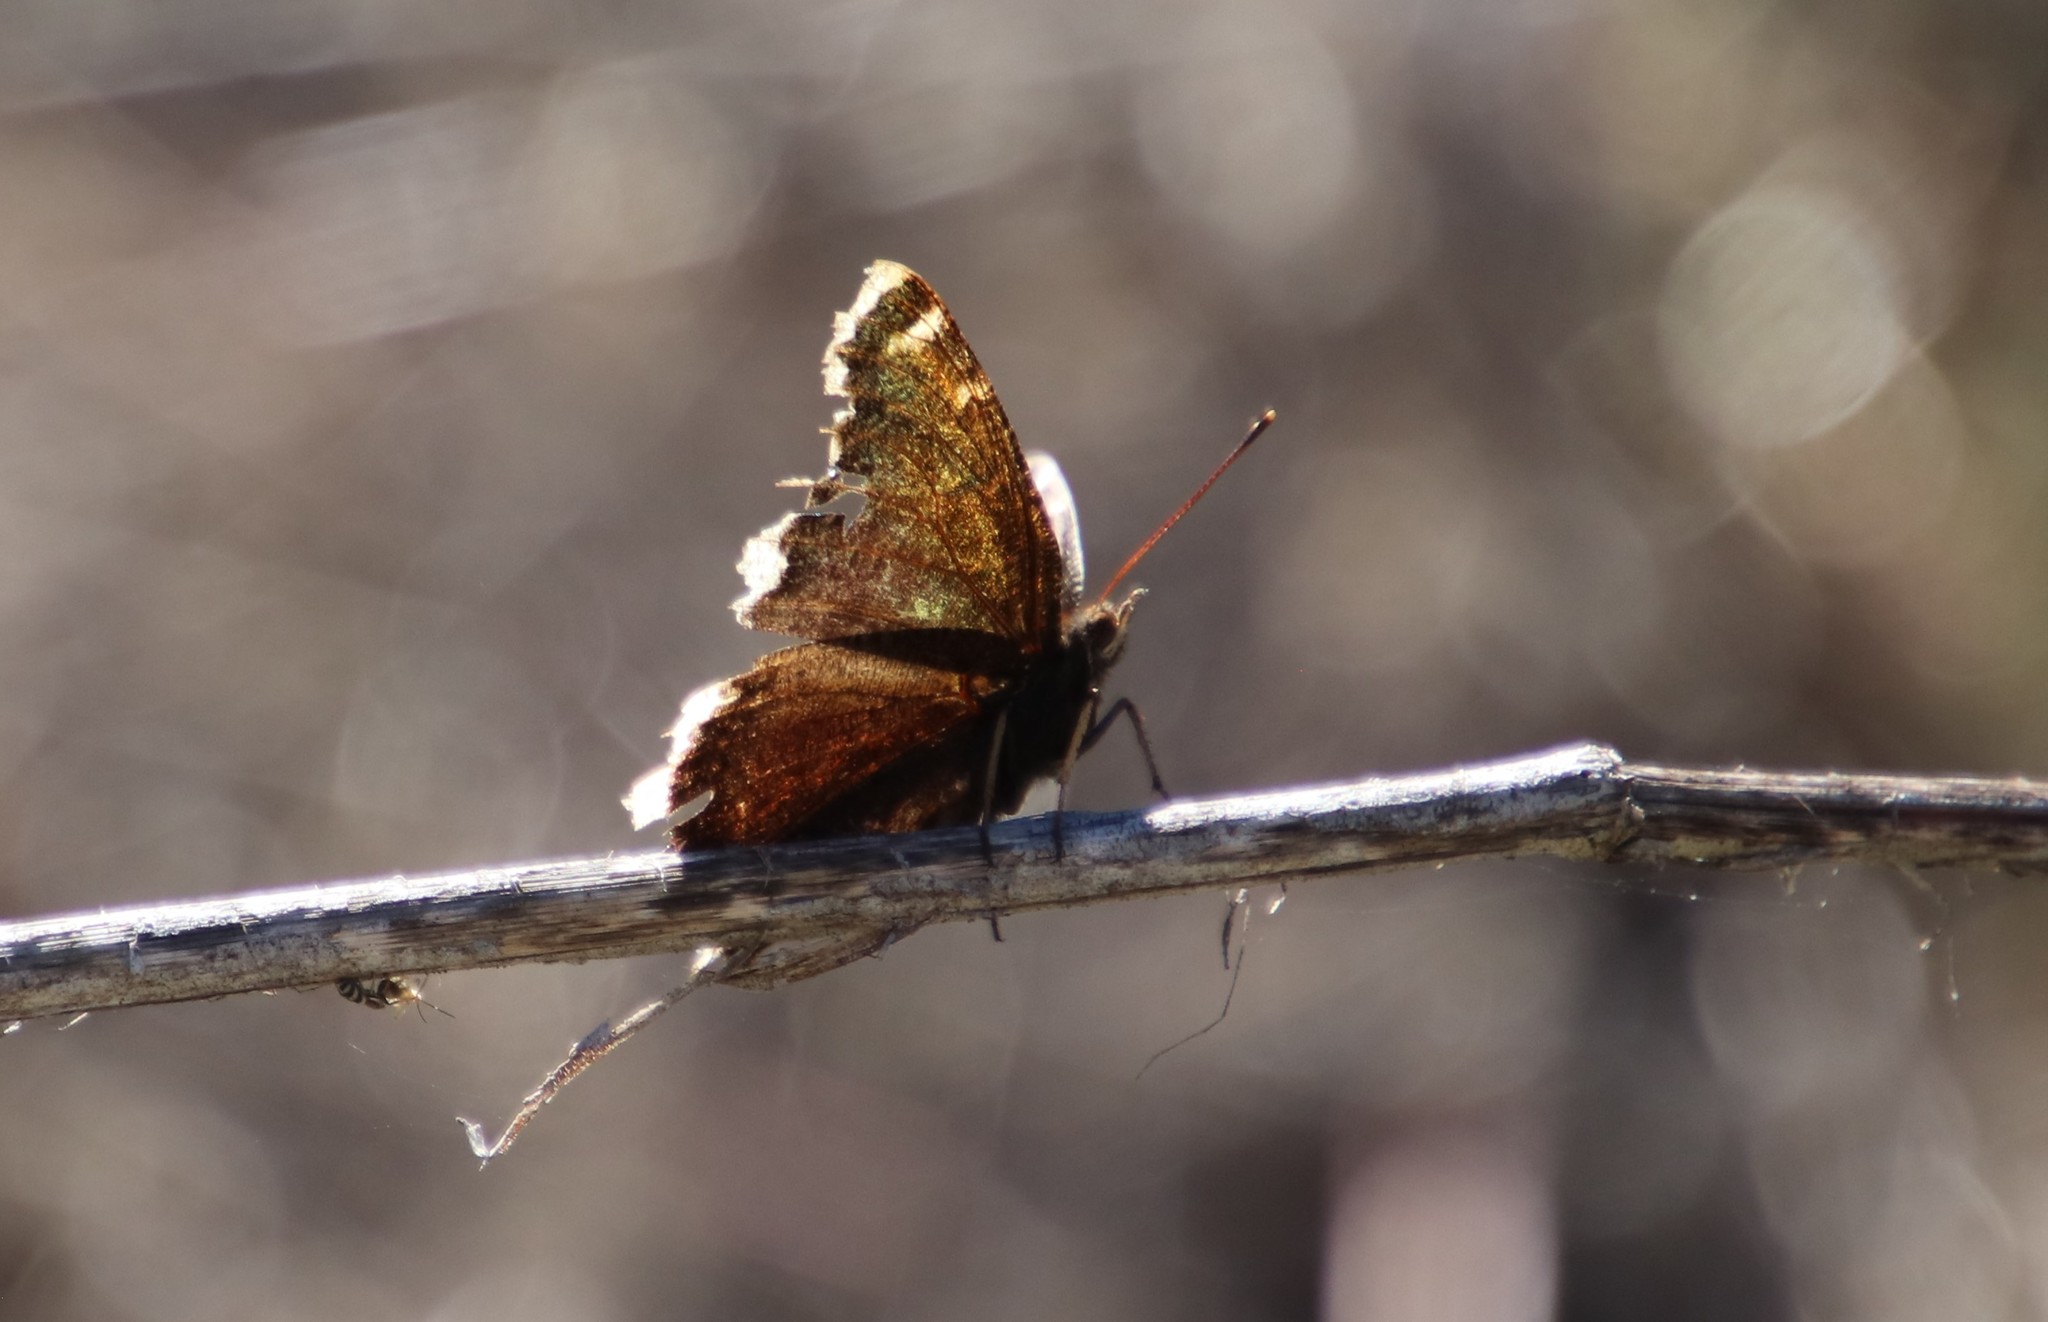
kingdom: Animalia
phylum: Arthropoda
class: Insecta
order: Lepidoptera
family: Nymphalidae
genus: Nymphalis
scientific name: Nymphalis antiopa
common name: Camberwell beauty
